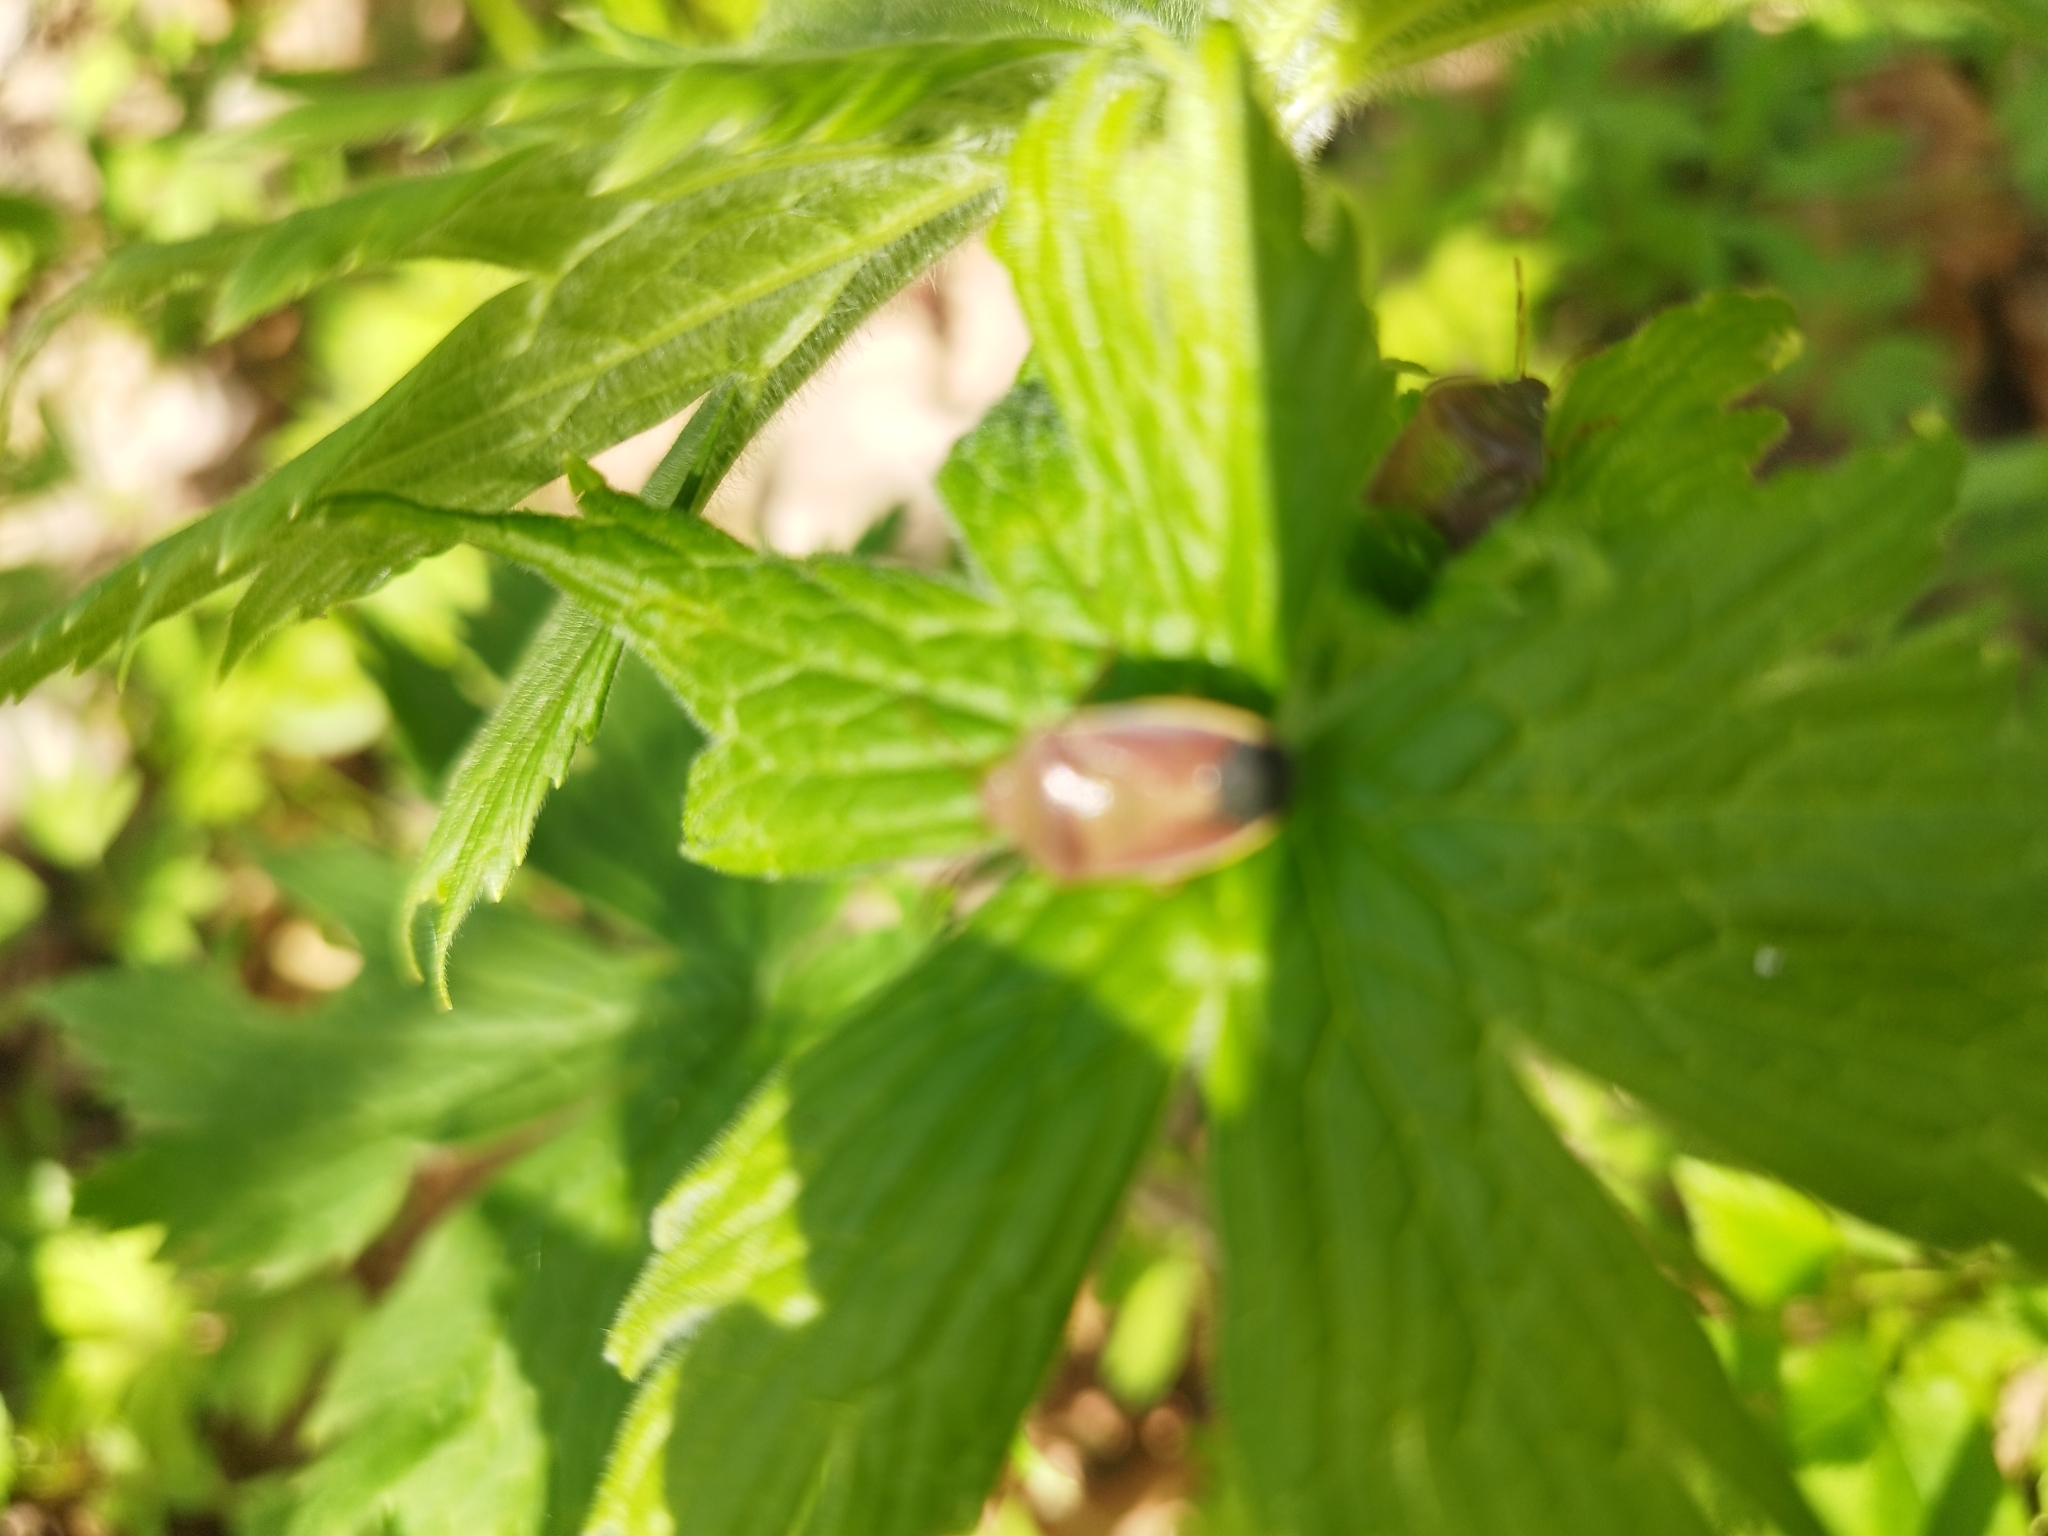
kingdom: Animalia
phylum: Arthropoda
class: Insecta
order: Hemiptera
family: Pentatomidae
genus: Piezodorus
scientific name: Piezodorus lituratus
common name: Stink bug
